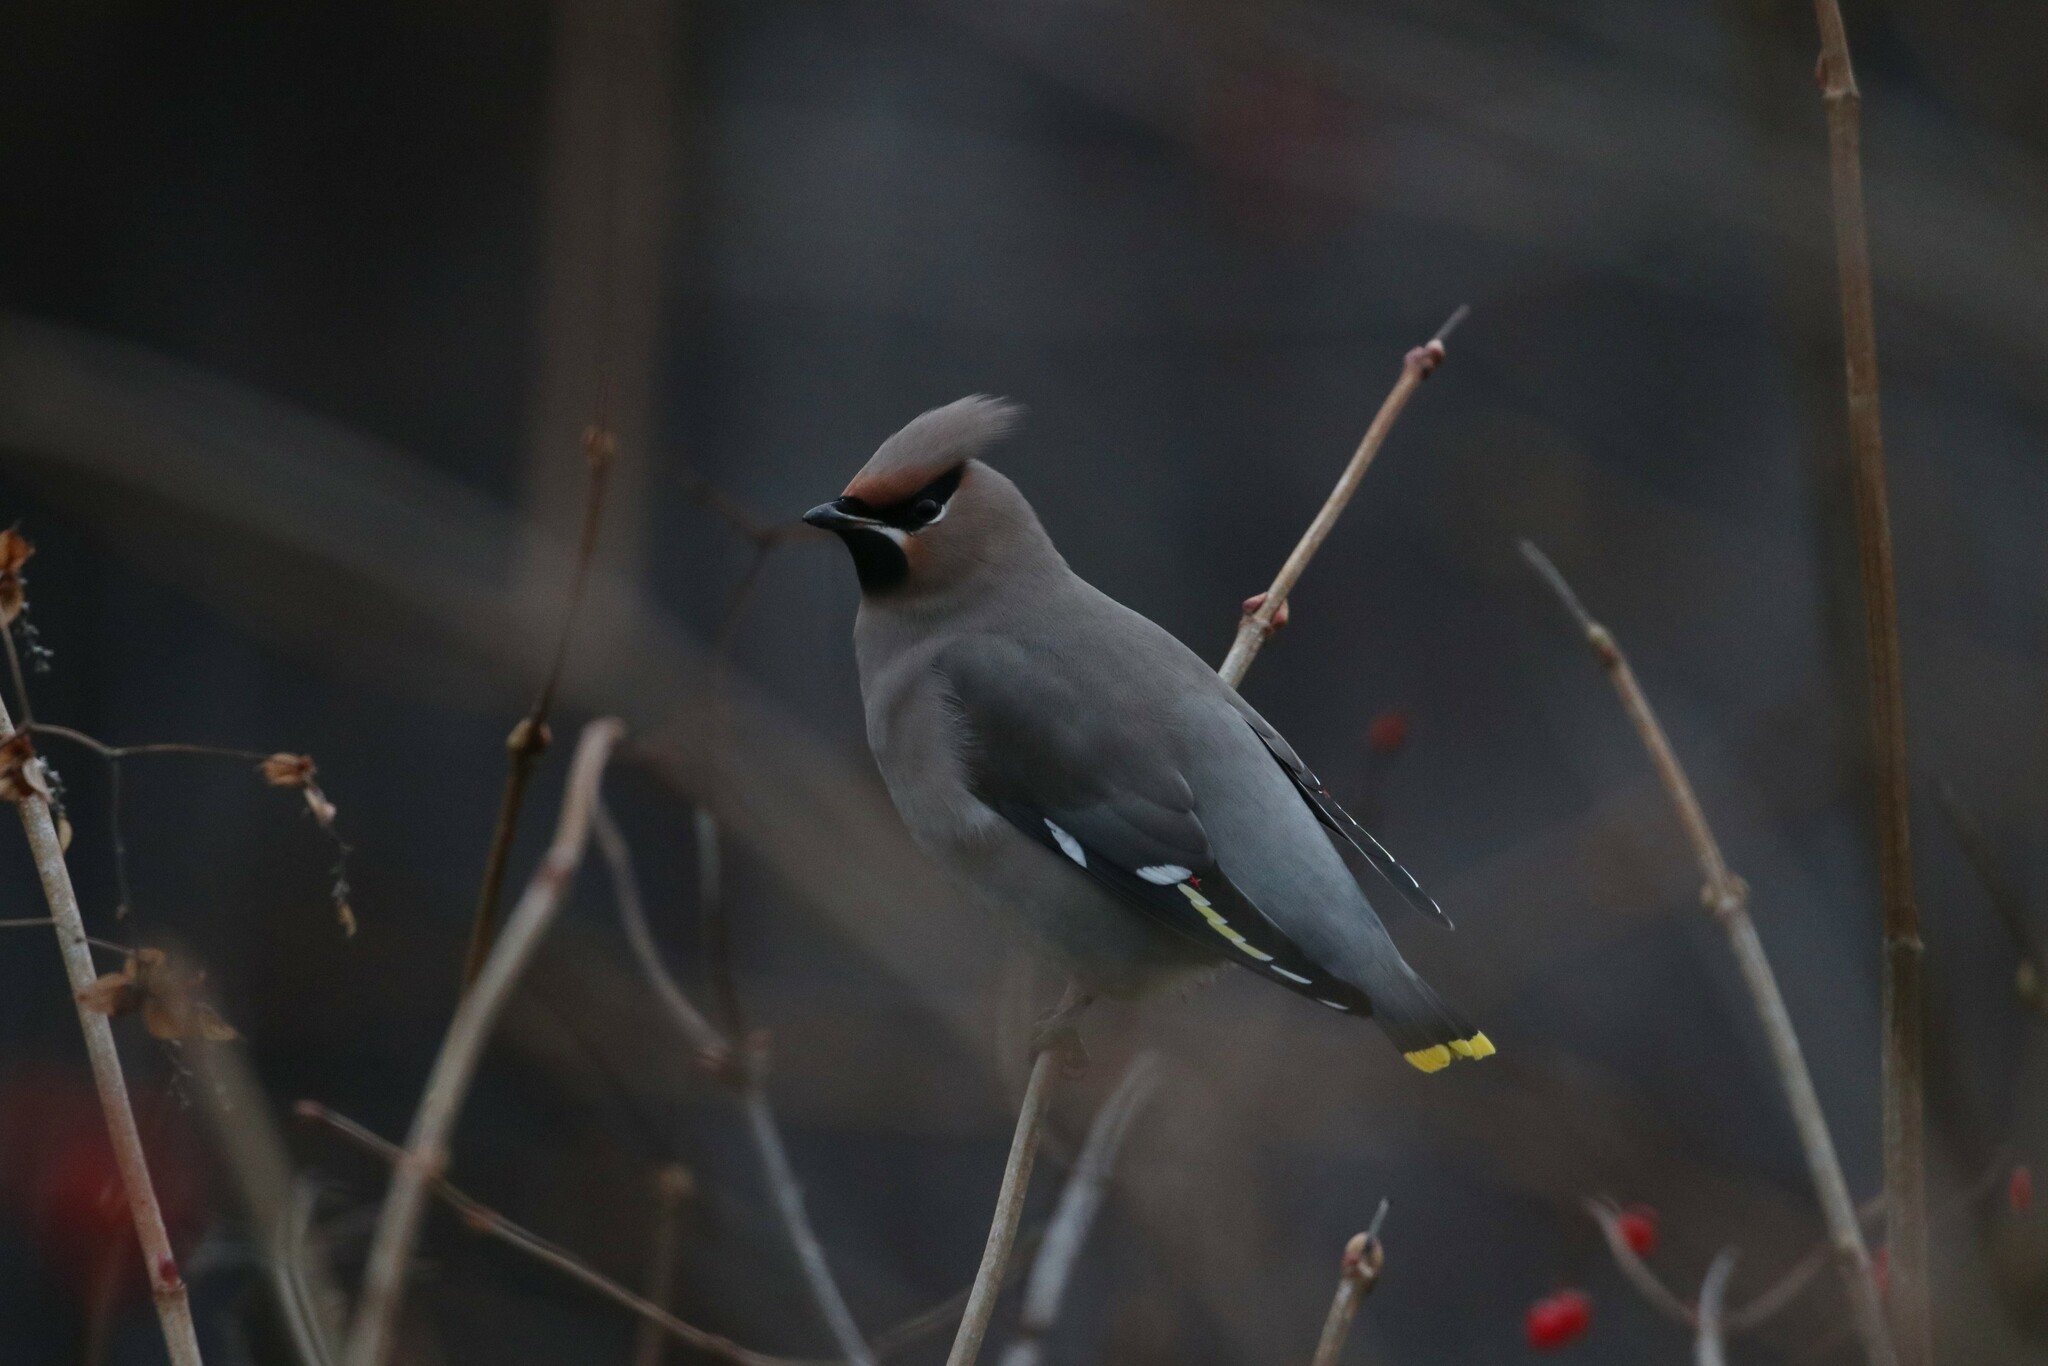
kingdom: Animalia
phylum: Chordata
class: Aves
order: Passeriformes
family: Bombycillidae
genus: Bombycilla
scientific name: Bombycilla garrulus
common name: Bohemian waxwing
